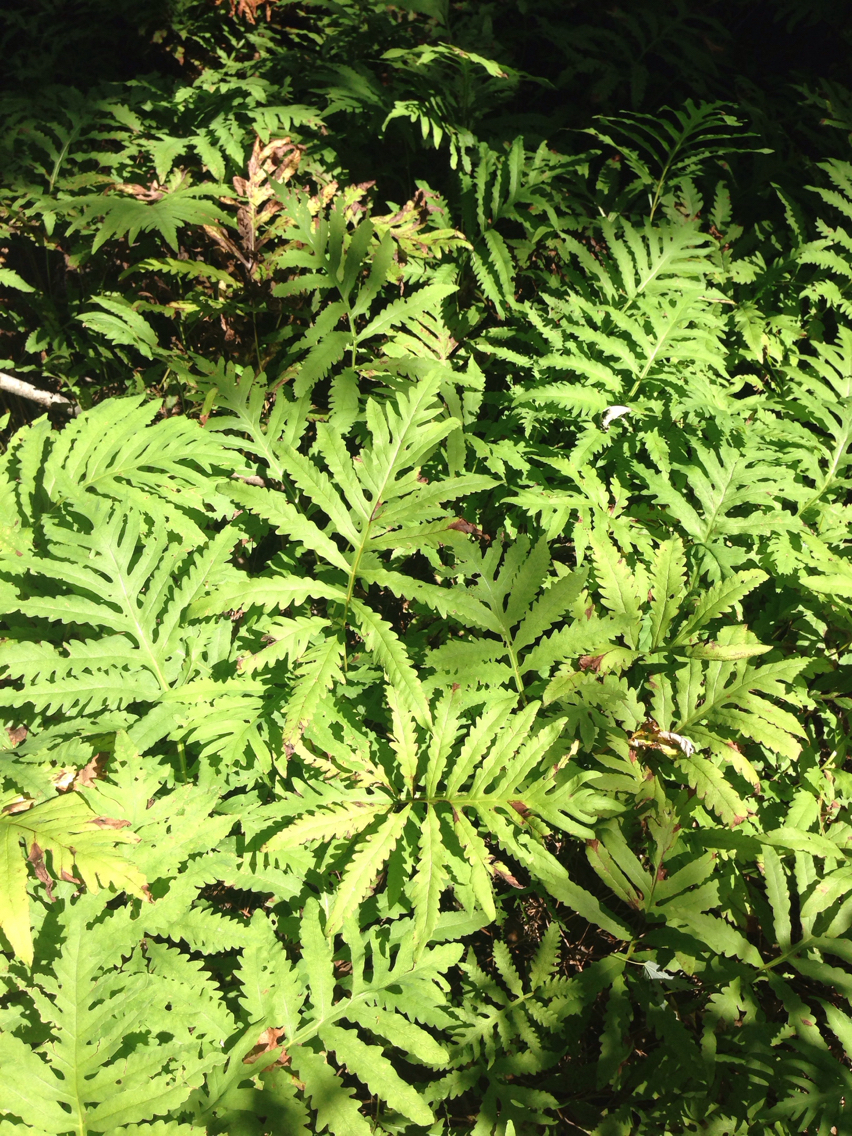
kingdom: Plantae
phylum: Tracheophyta
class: Polypodiopsida
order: Polypodiales
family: Onocleaceae
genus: Onoclea
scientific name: Onoclea sensibilis
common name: Sensitive fern
